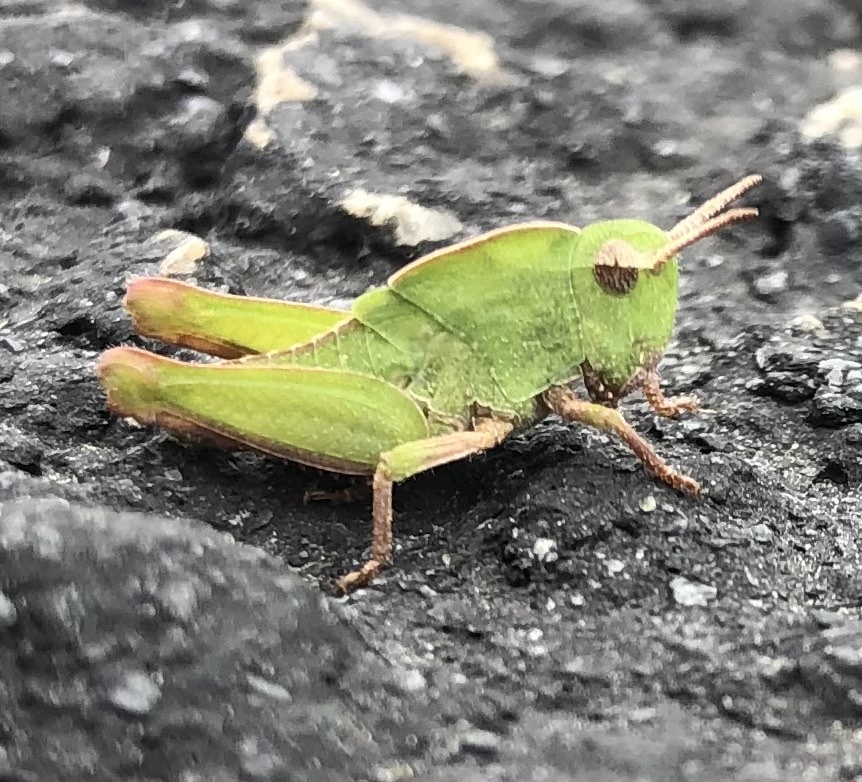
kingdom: Animalia
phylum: Arthropoda
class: Insecta
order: Orthoptera
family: Acrididae
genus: Chortophaga
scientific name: Chortophaga viridifasciata
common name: Green-striped grasshopper
